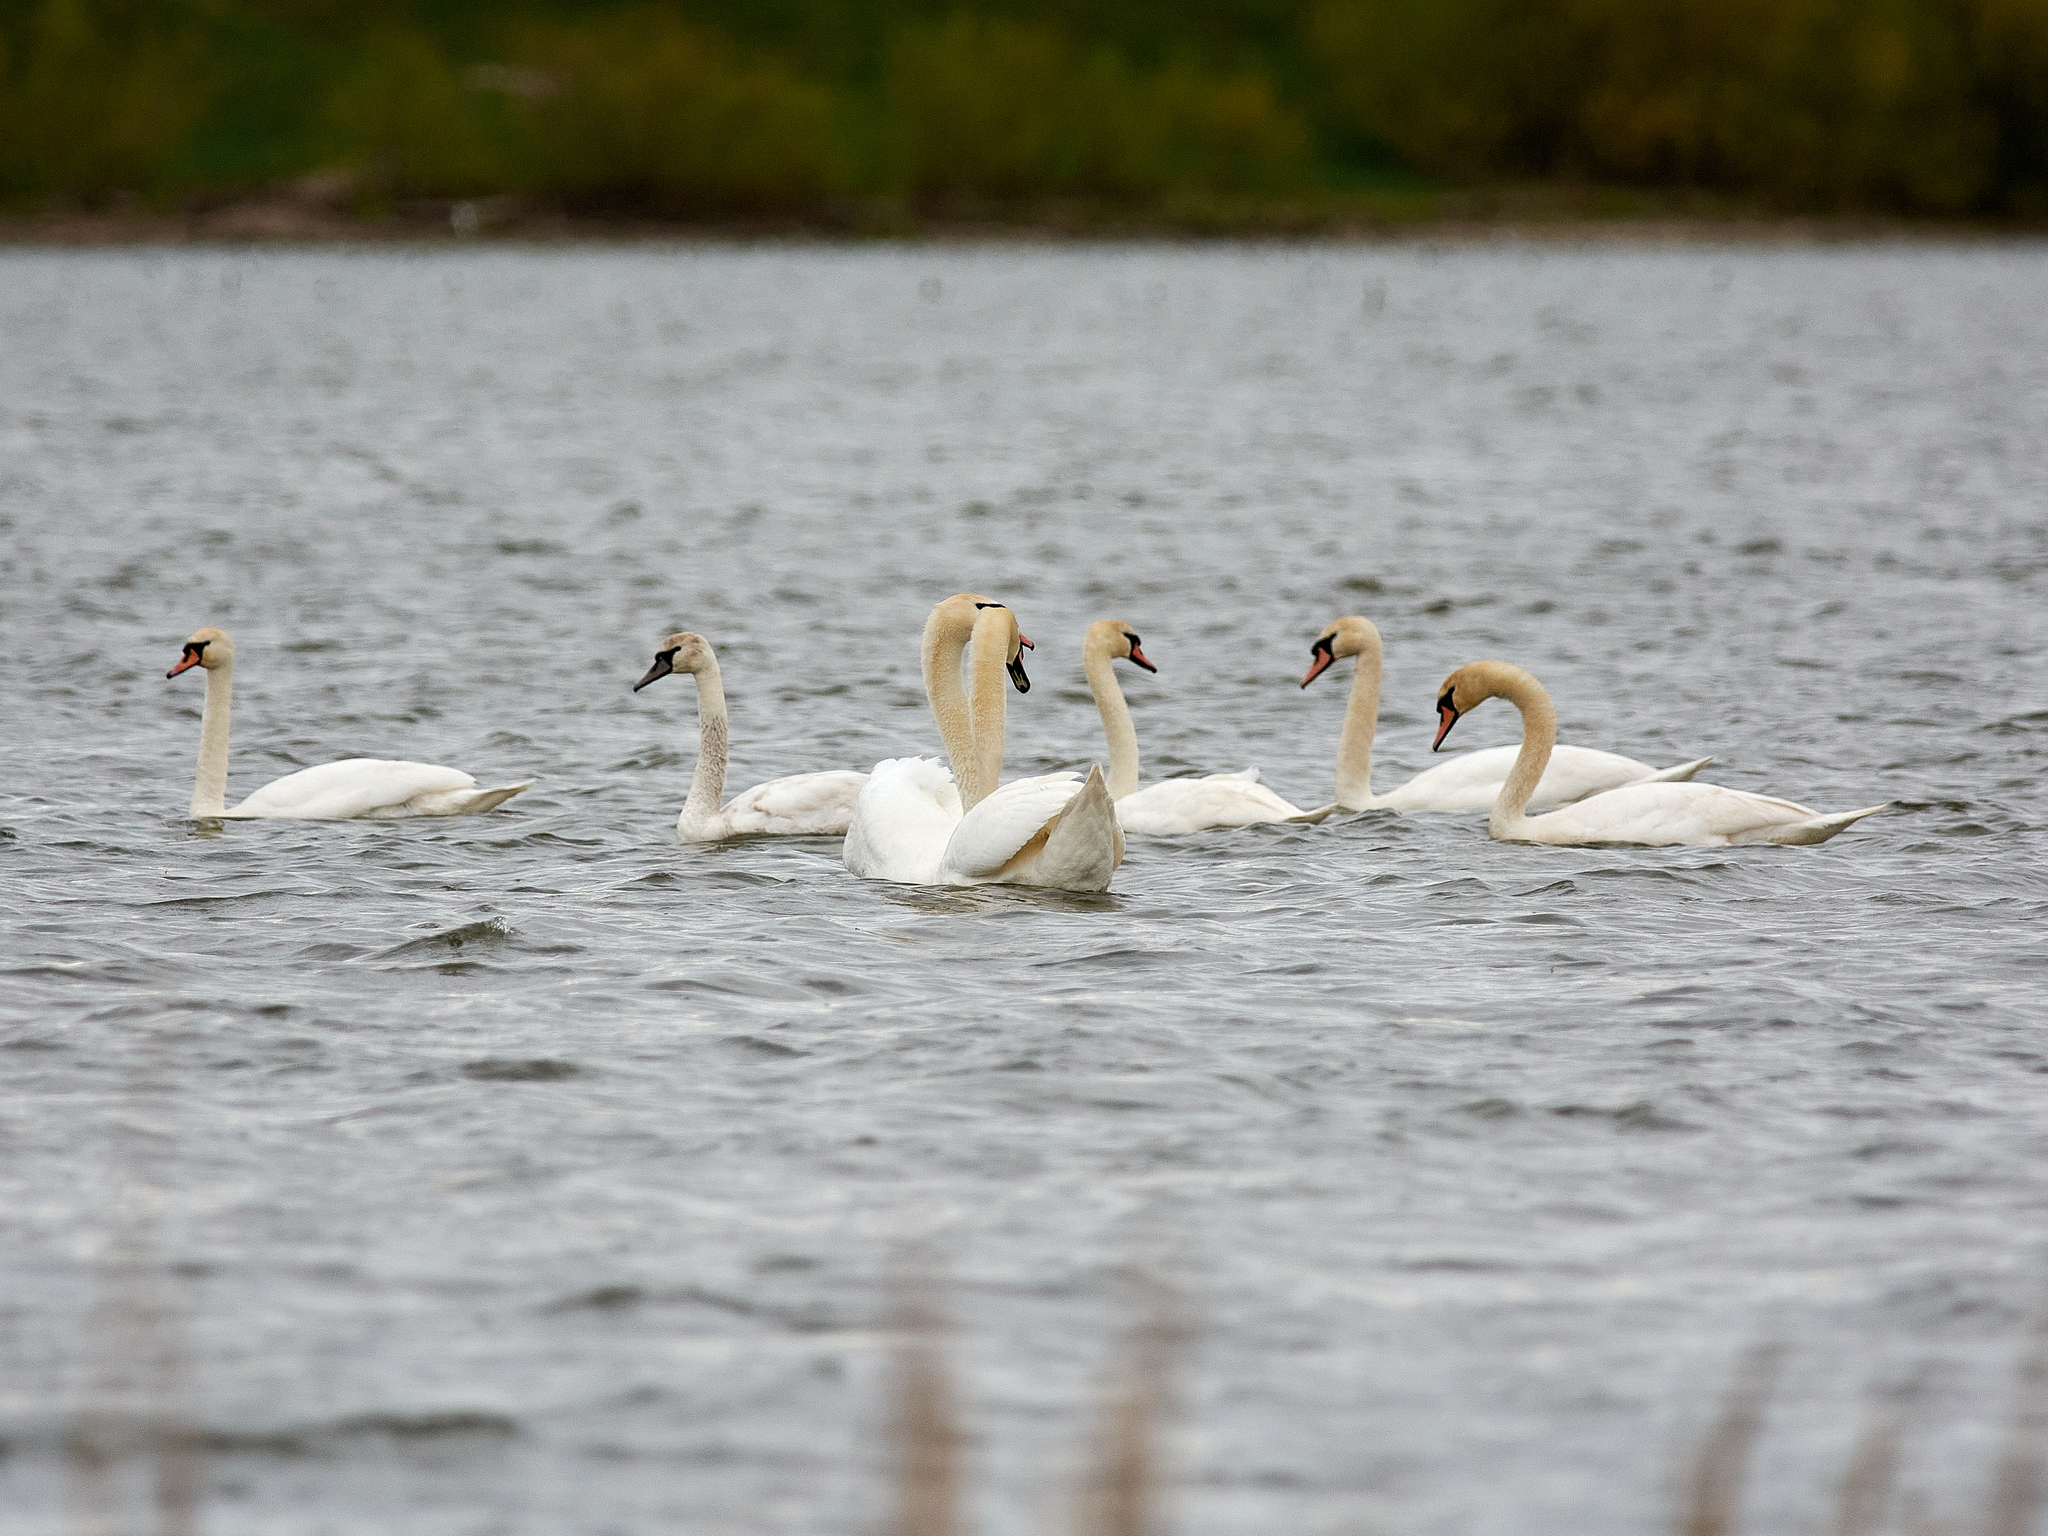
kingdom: Animalia
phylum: Chordata
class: Aves
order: Anseriformes
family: Anatidae
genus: Cygnus
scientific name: Cygnus olor
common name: Mute swan
